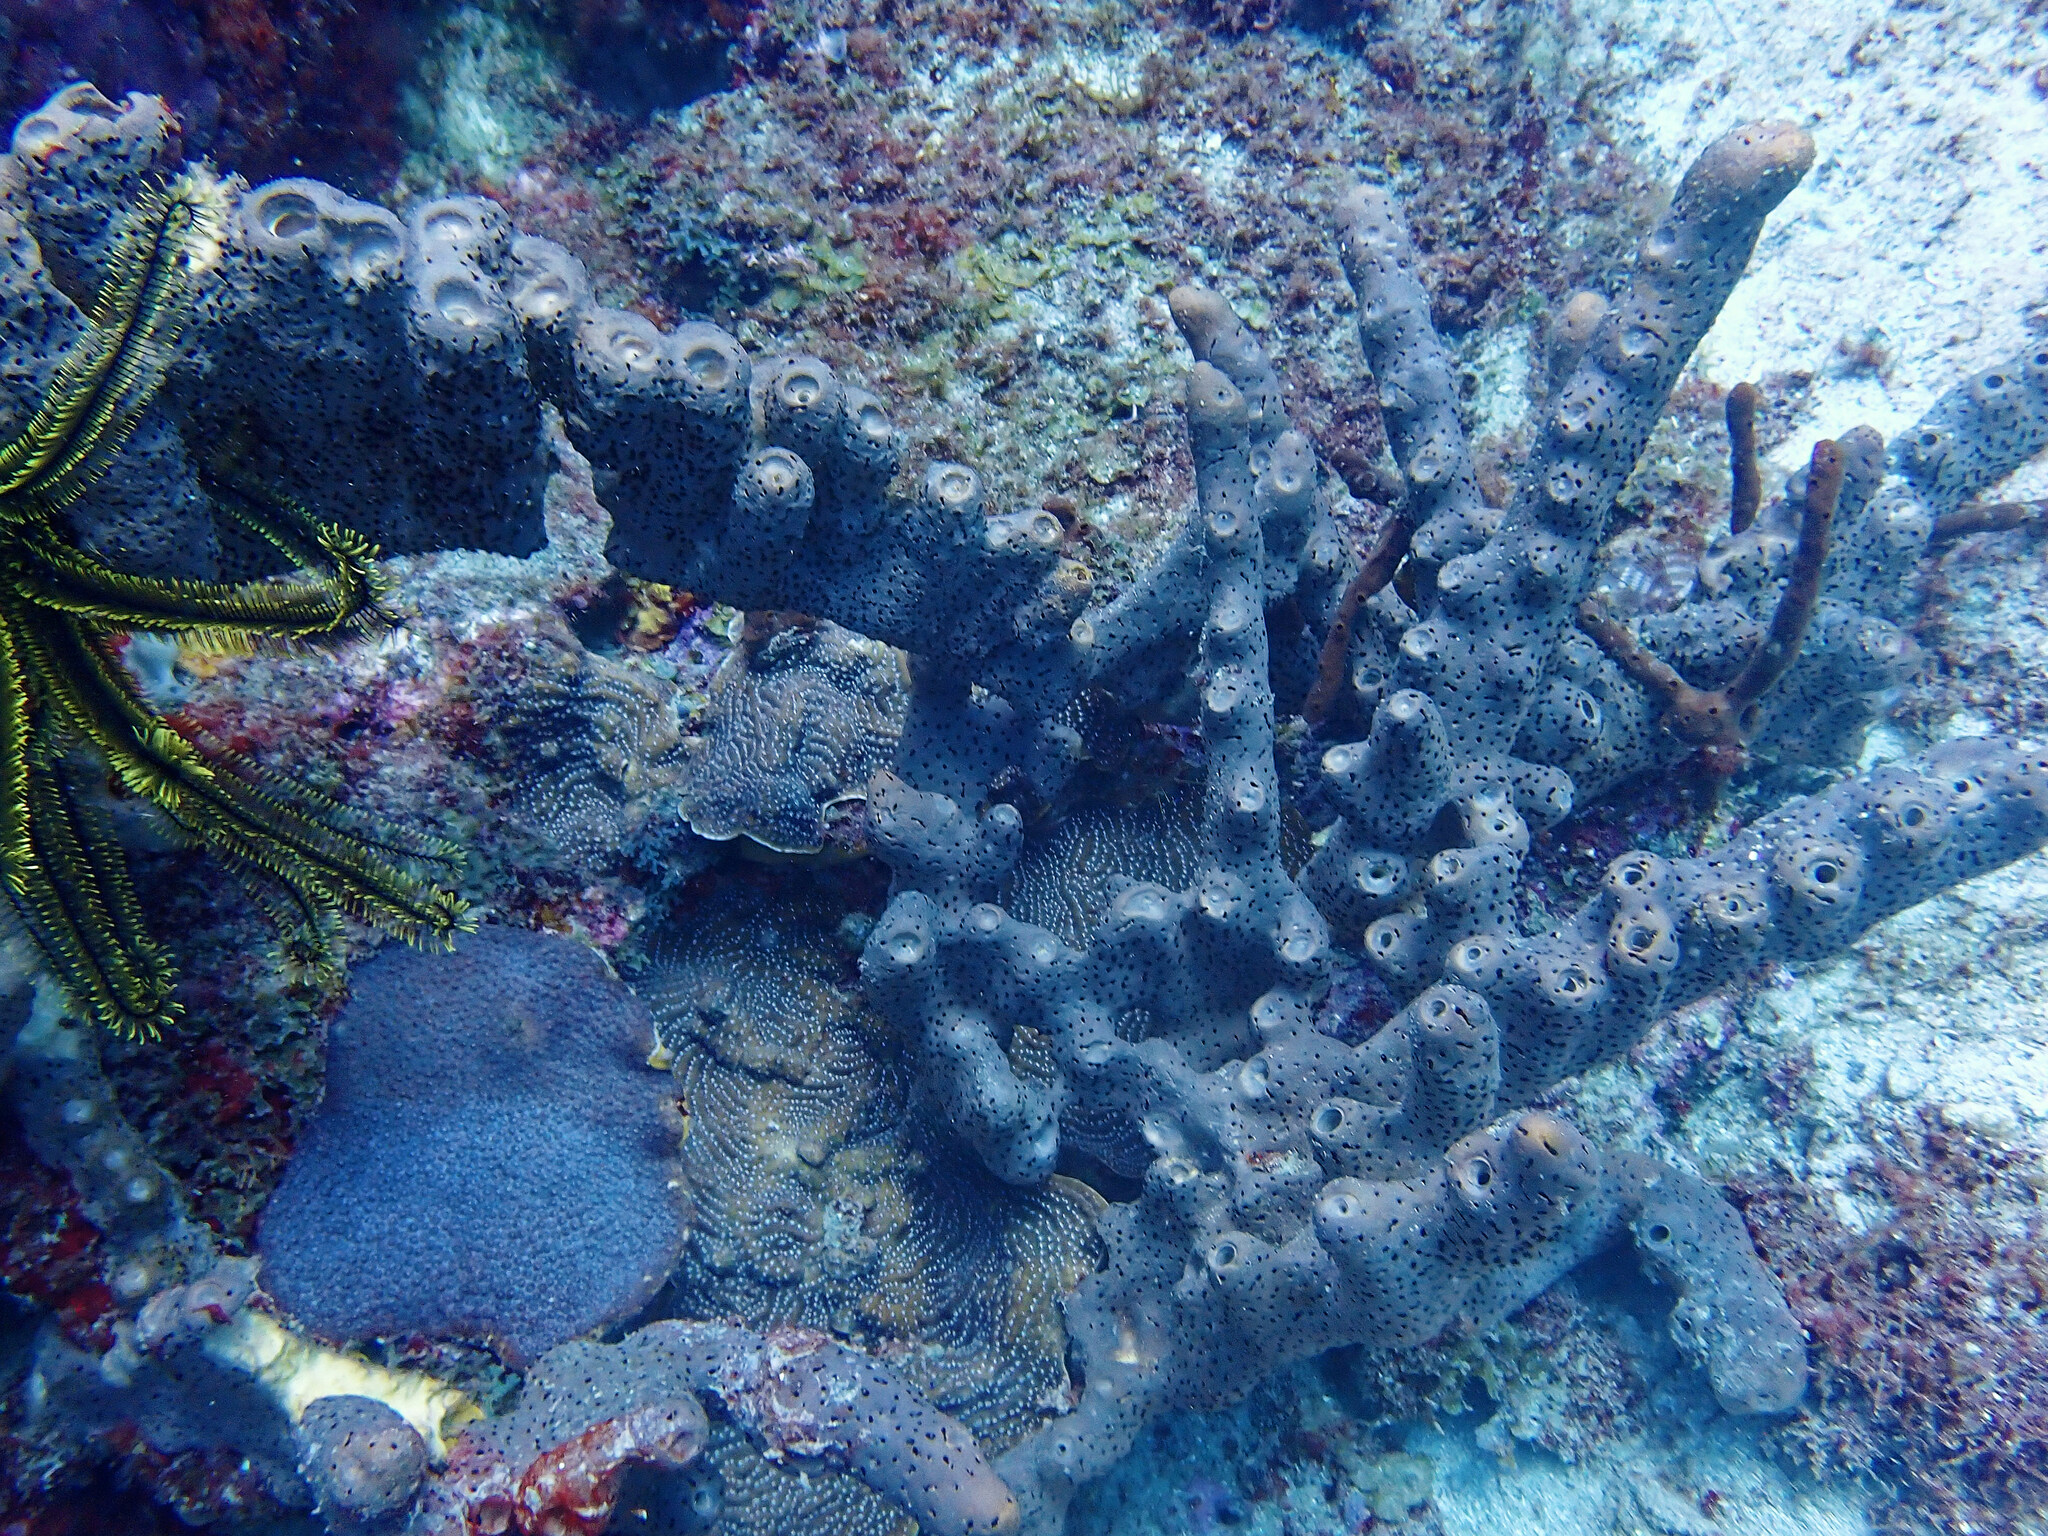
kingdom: Animalia
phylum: Porifera
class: Demospongiae
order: Agelasida
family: Agelasidae
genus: Agelas
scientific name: Agelas conifera
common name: Brown tube sponge
